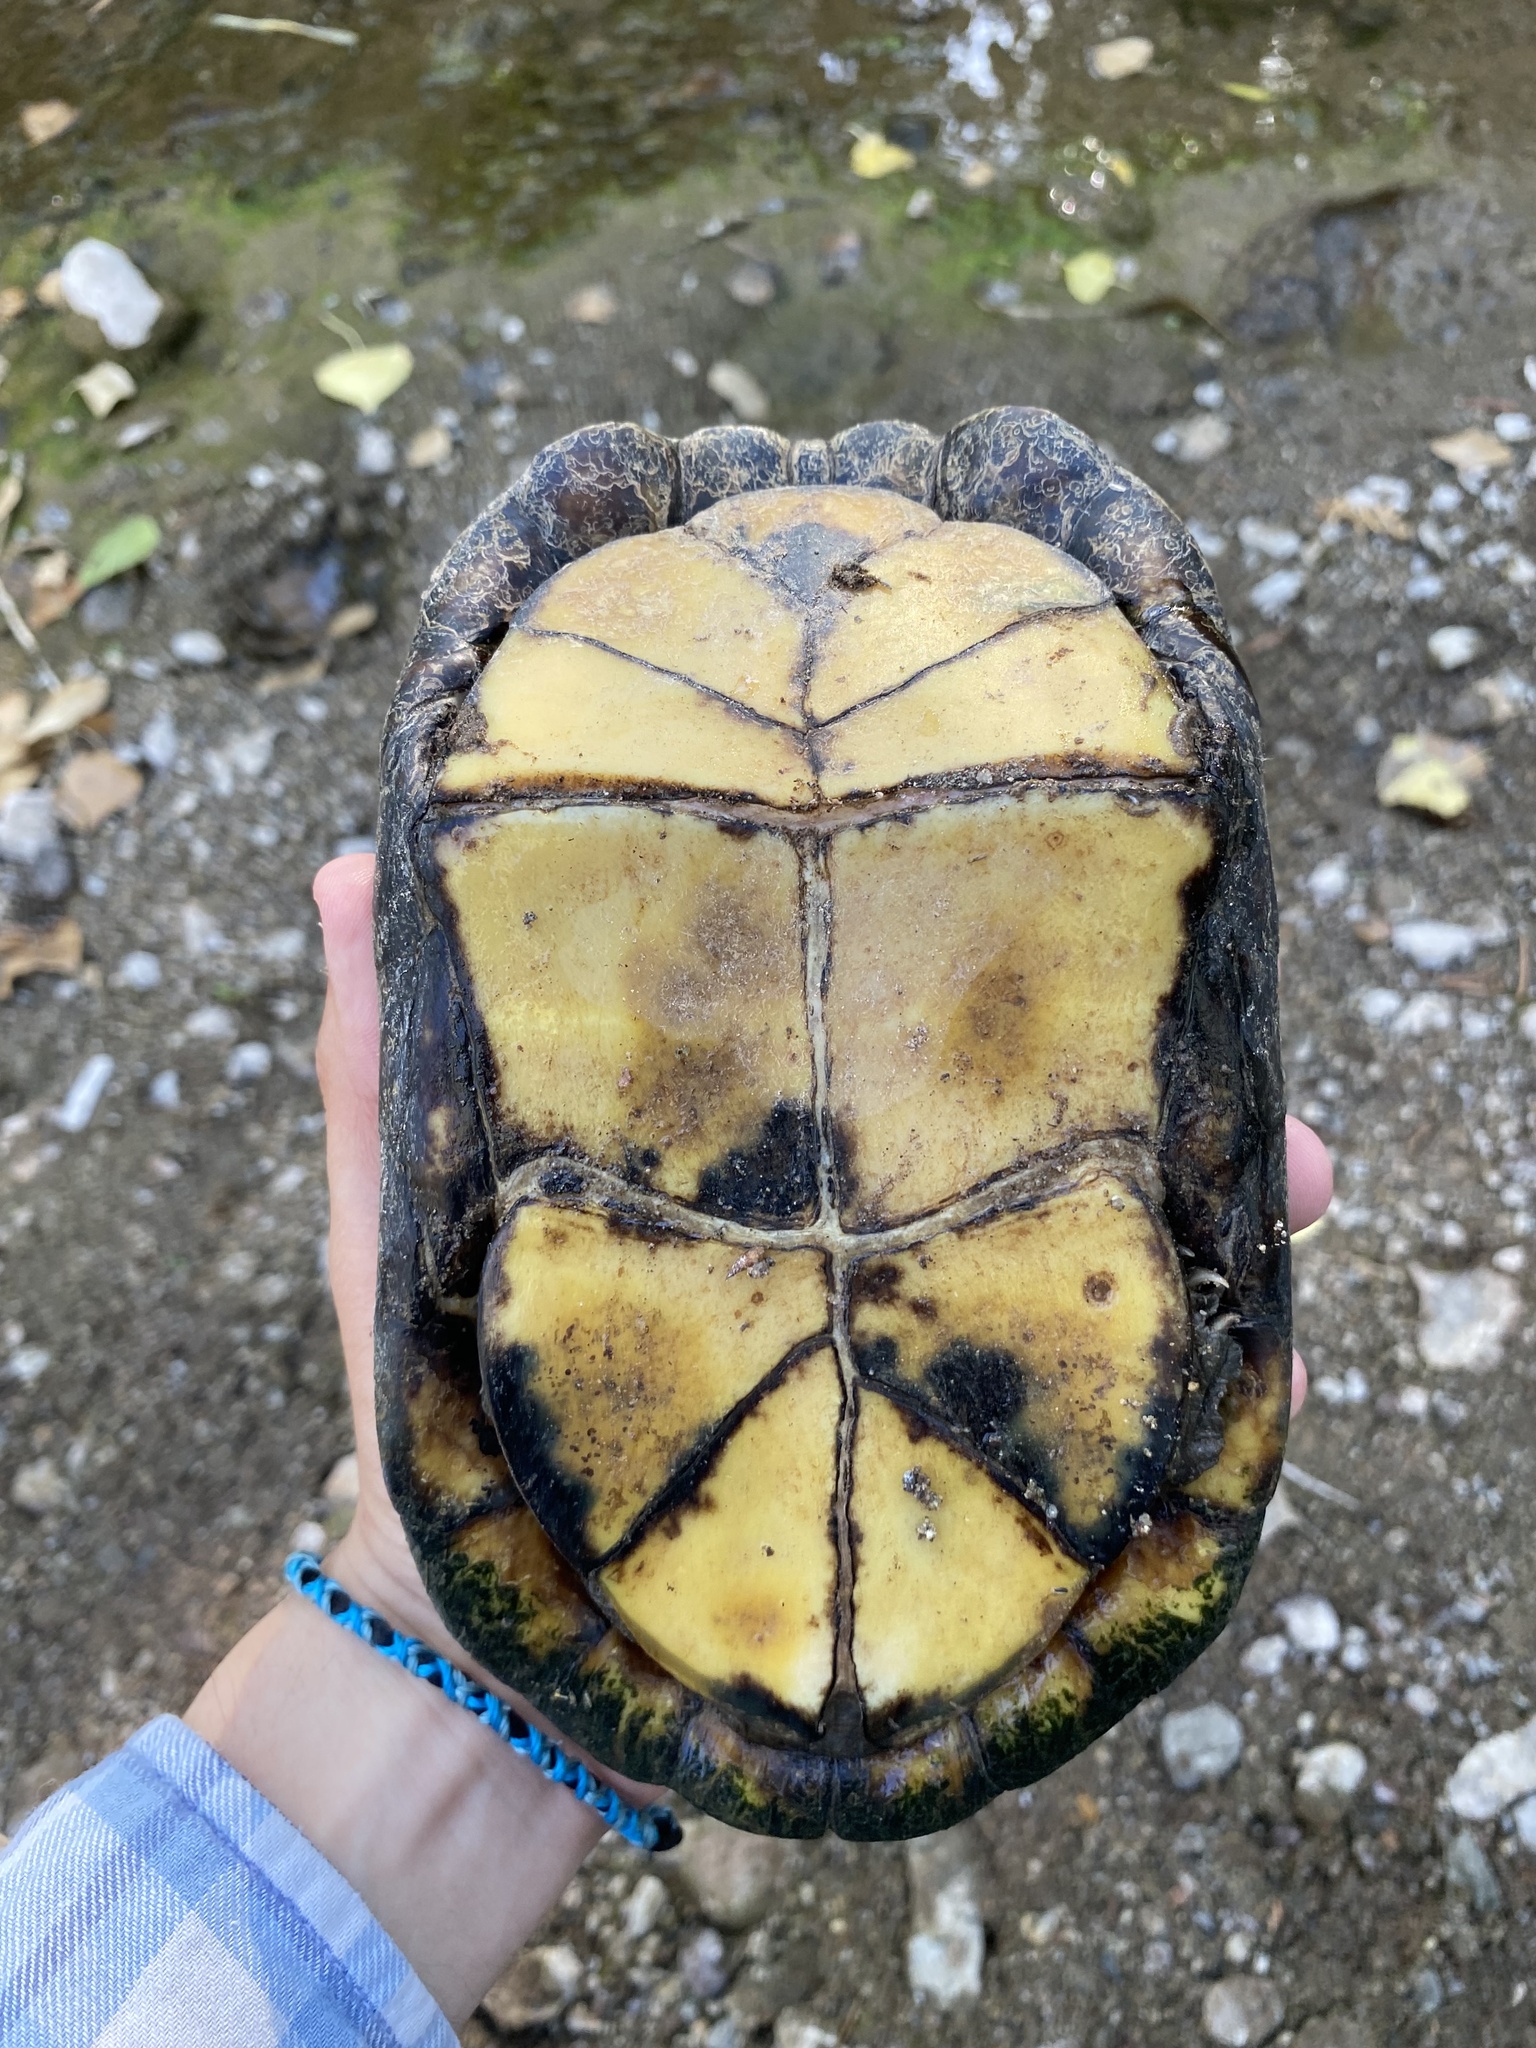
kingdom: Animalia
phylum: Chordata
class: Testudines
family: Kinosternidae
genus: Kinosternon
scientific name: Kinosternon sonoriense
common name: Sonora mud turtle
